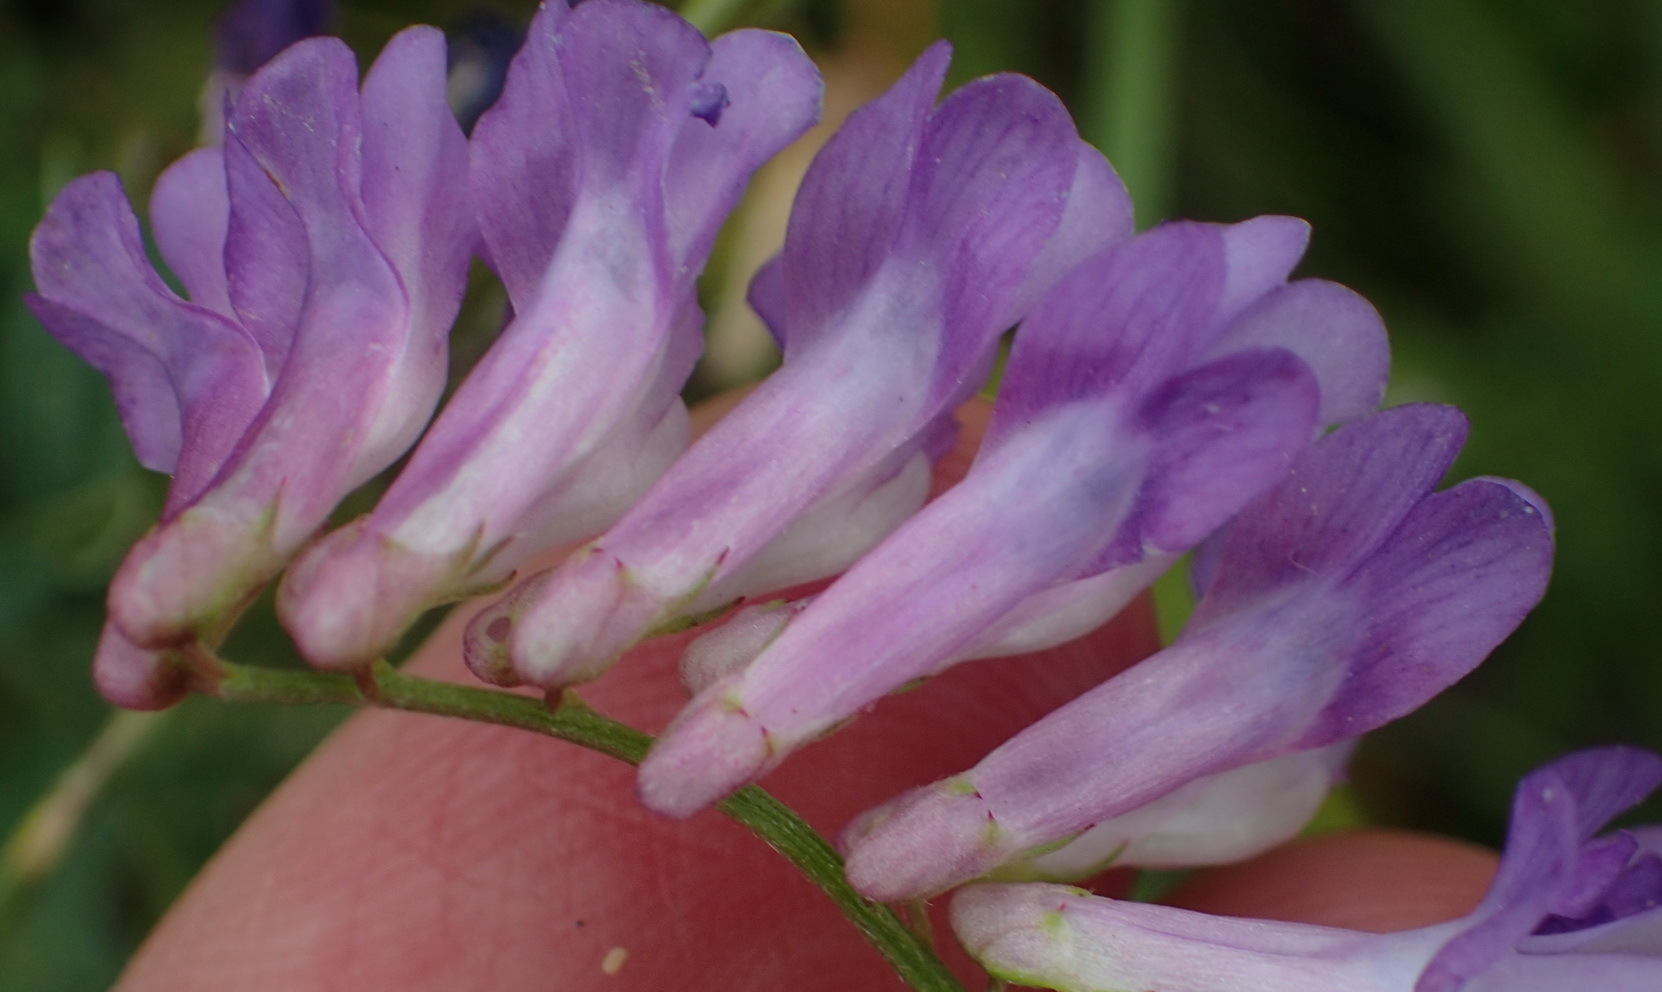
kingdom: Plantae
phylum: Tracheophyta
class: Magnoliopsida
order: Fabales
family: Fabaceae
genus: Vicia
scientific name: Vicia villosa
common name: Fodder vetch
